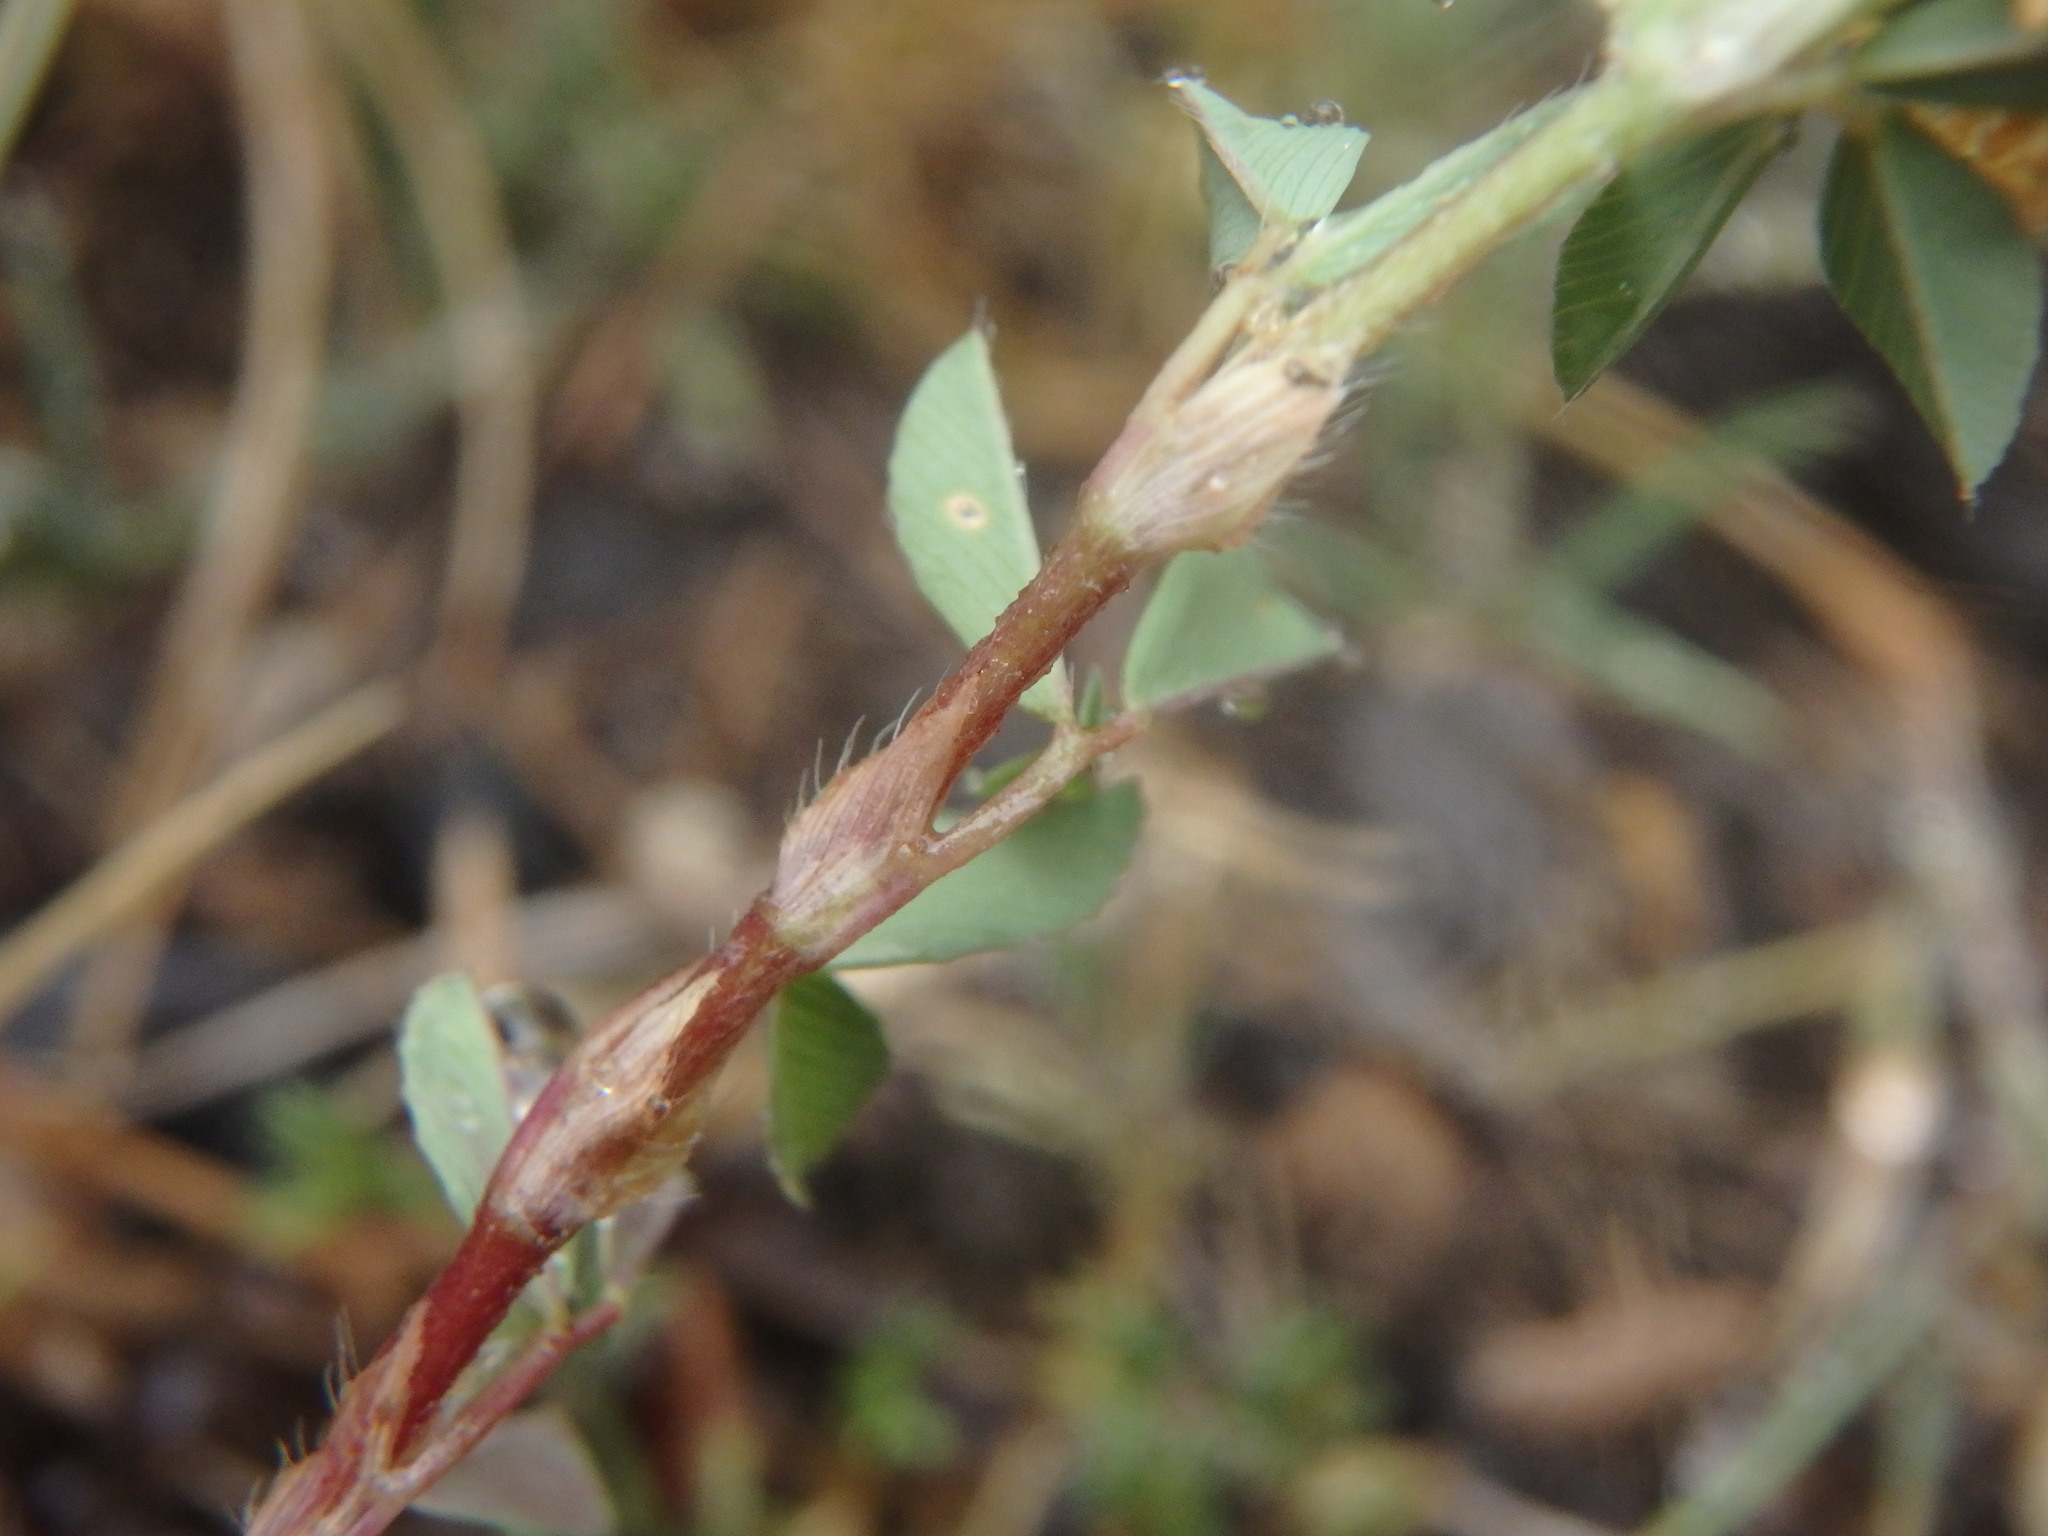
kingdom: Plantae
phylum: Tracheophyta
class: Magnoliopsida
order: Fabales
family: Fabaceae
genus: Trifolium
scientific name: Trifolium campestre
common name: Field clover
